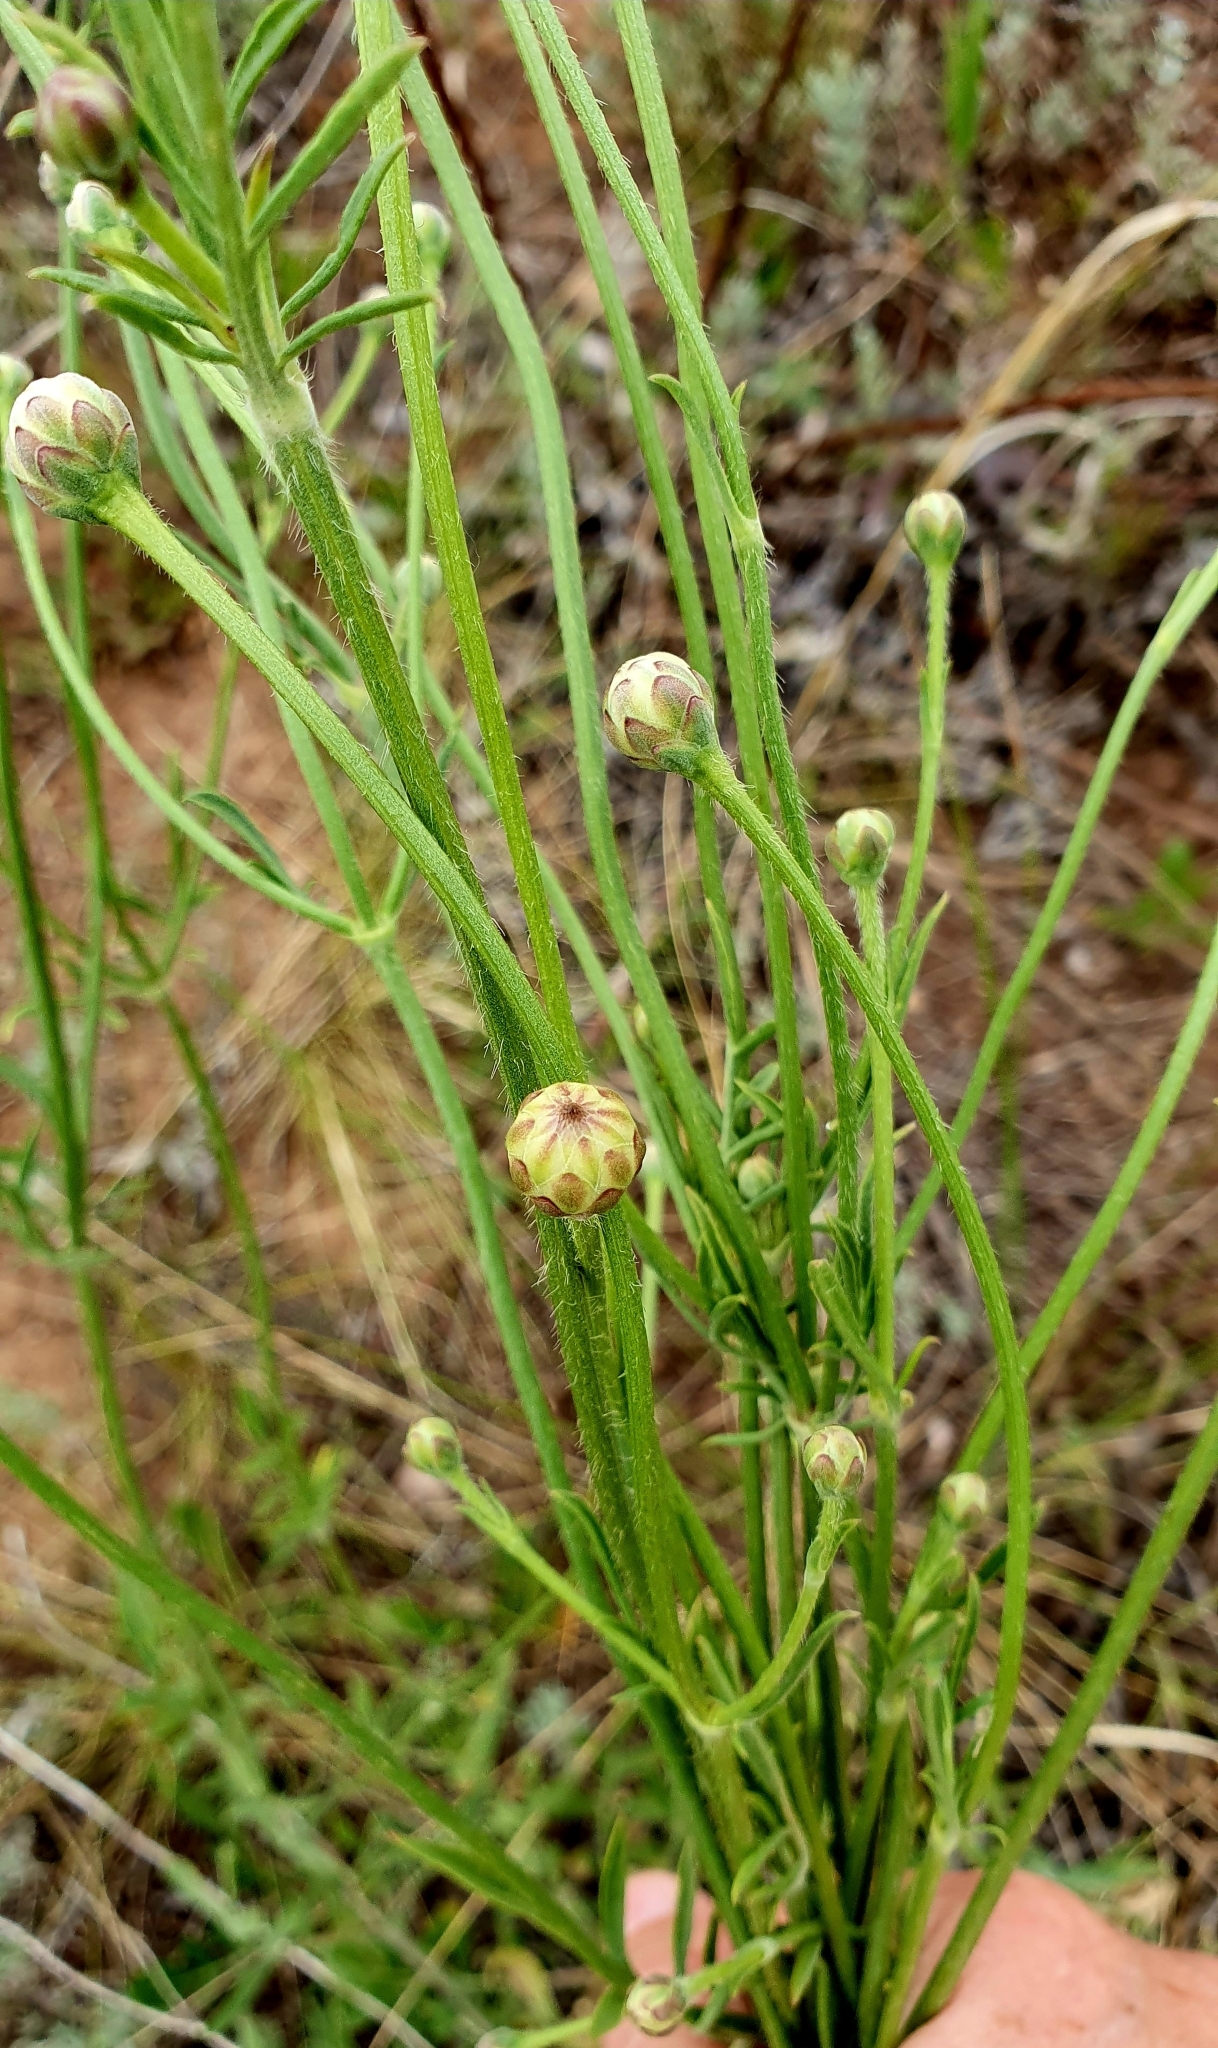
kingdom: Plantae
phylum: Tracheophyta
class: Magnoliopsida
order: Dipsacales
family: Caprifoliaceae
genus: Cephalaria
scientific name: Cephalaria uralensis
